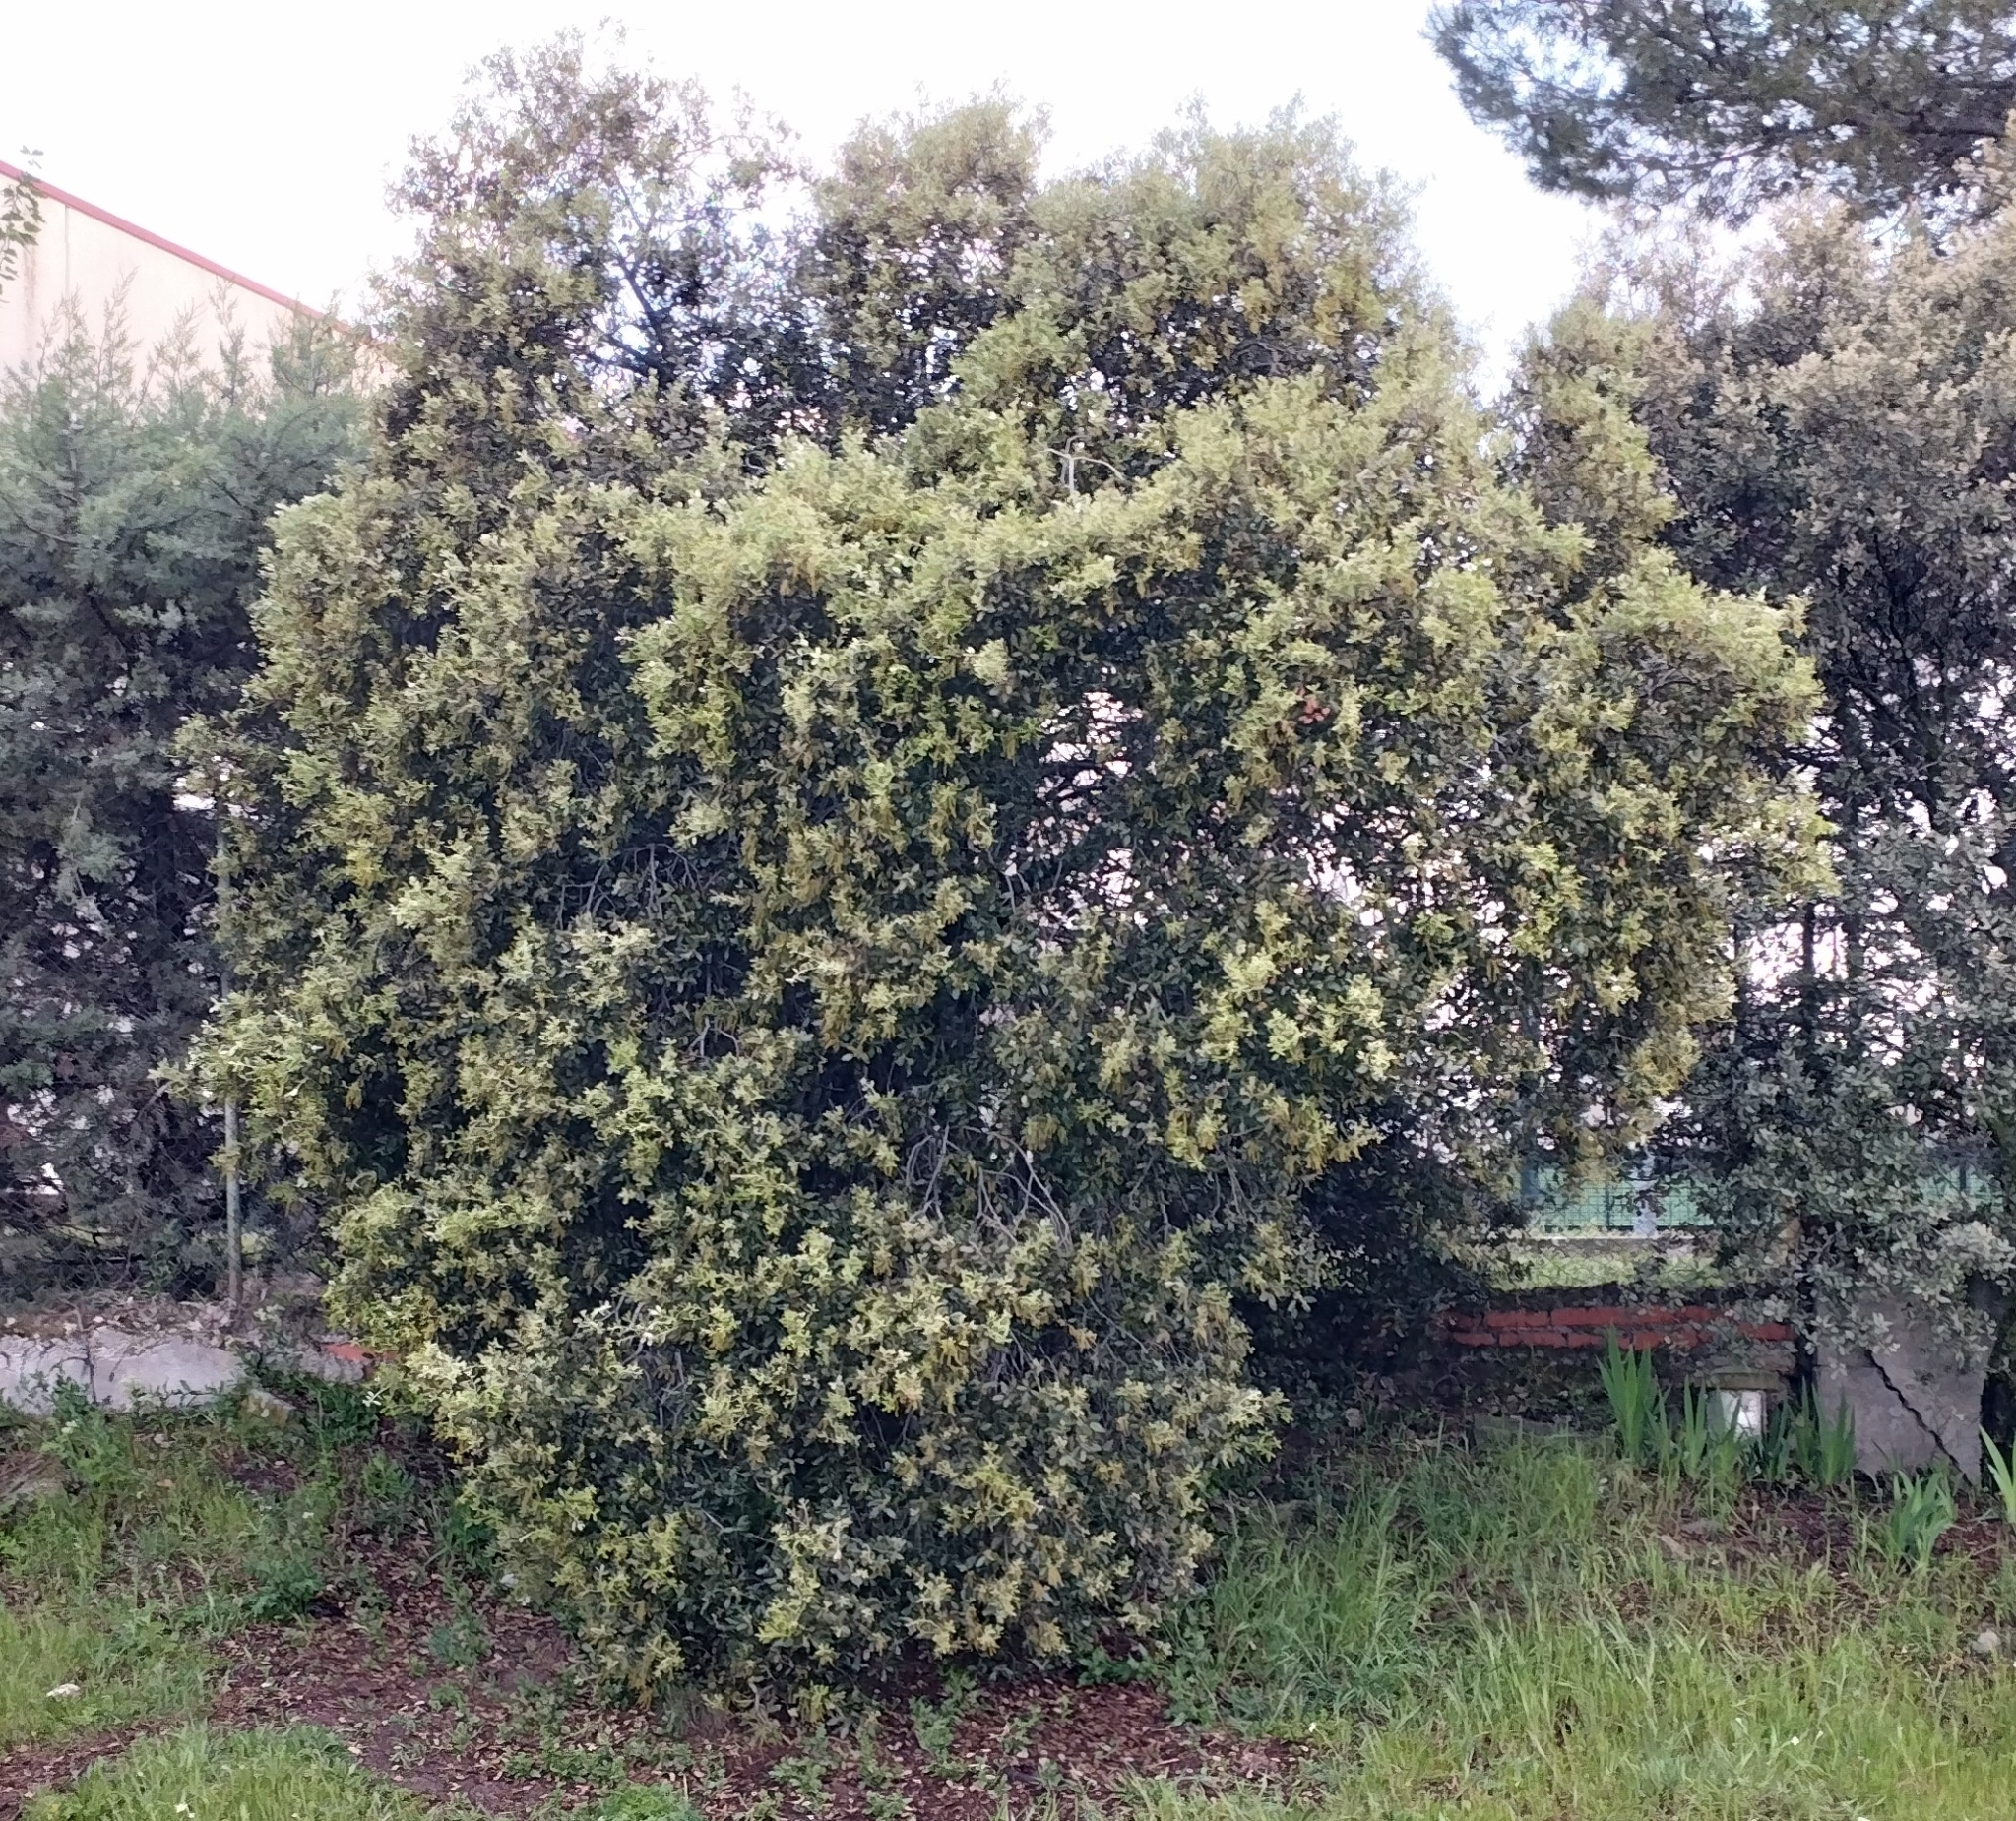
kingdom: Plantae
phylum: Tracheophyta
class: Magnoliopsida
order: Fagales
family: Fagaceae
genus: Quercus
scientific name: Quercus rotundifolia
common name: Holm oak
